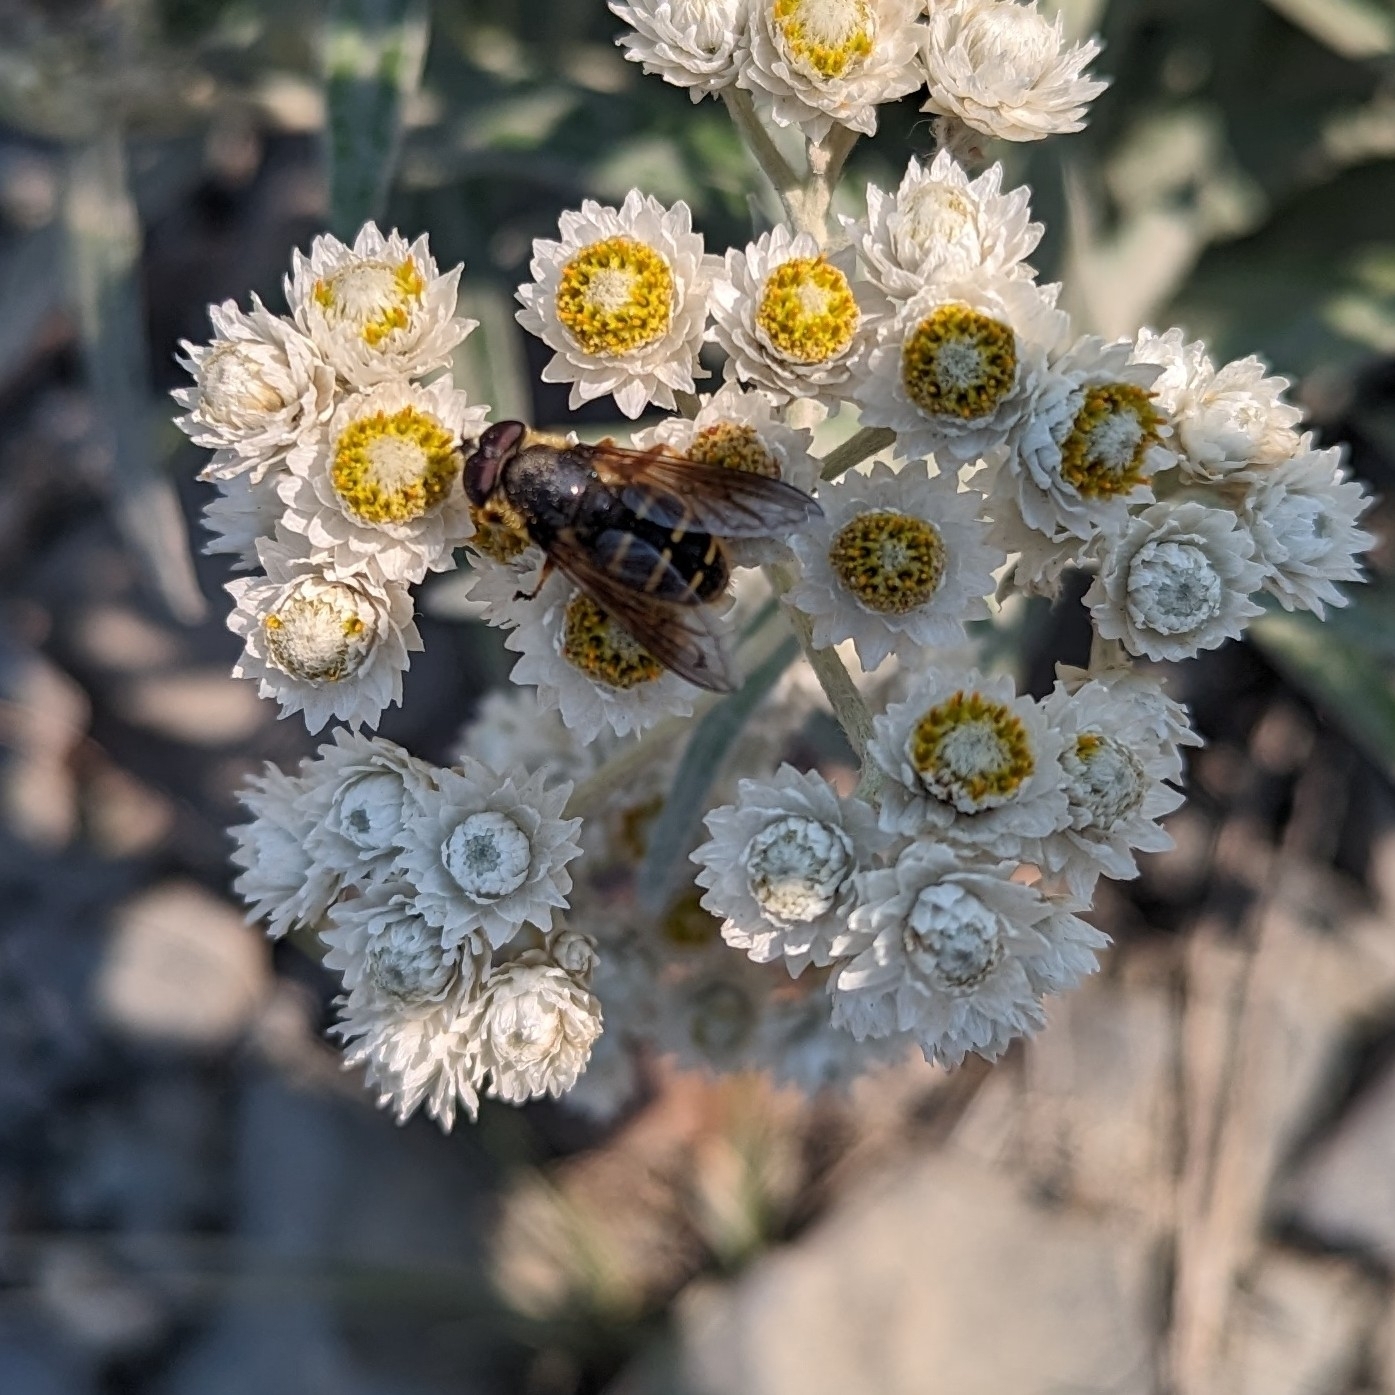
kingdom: Animalia
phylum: Arthropoda
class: Insecta
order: Diptera
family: Syrphidae
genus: Sericomyia
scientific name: Sericomyia chalcopyga
